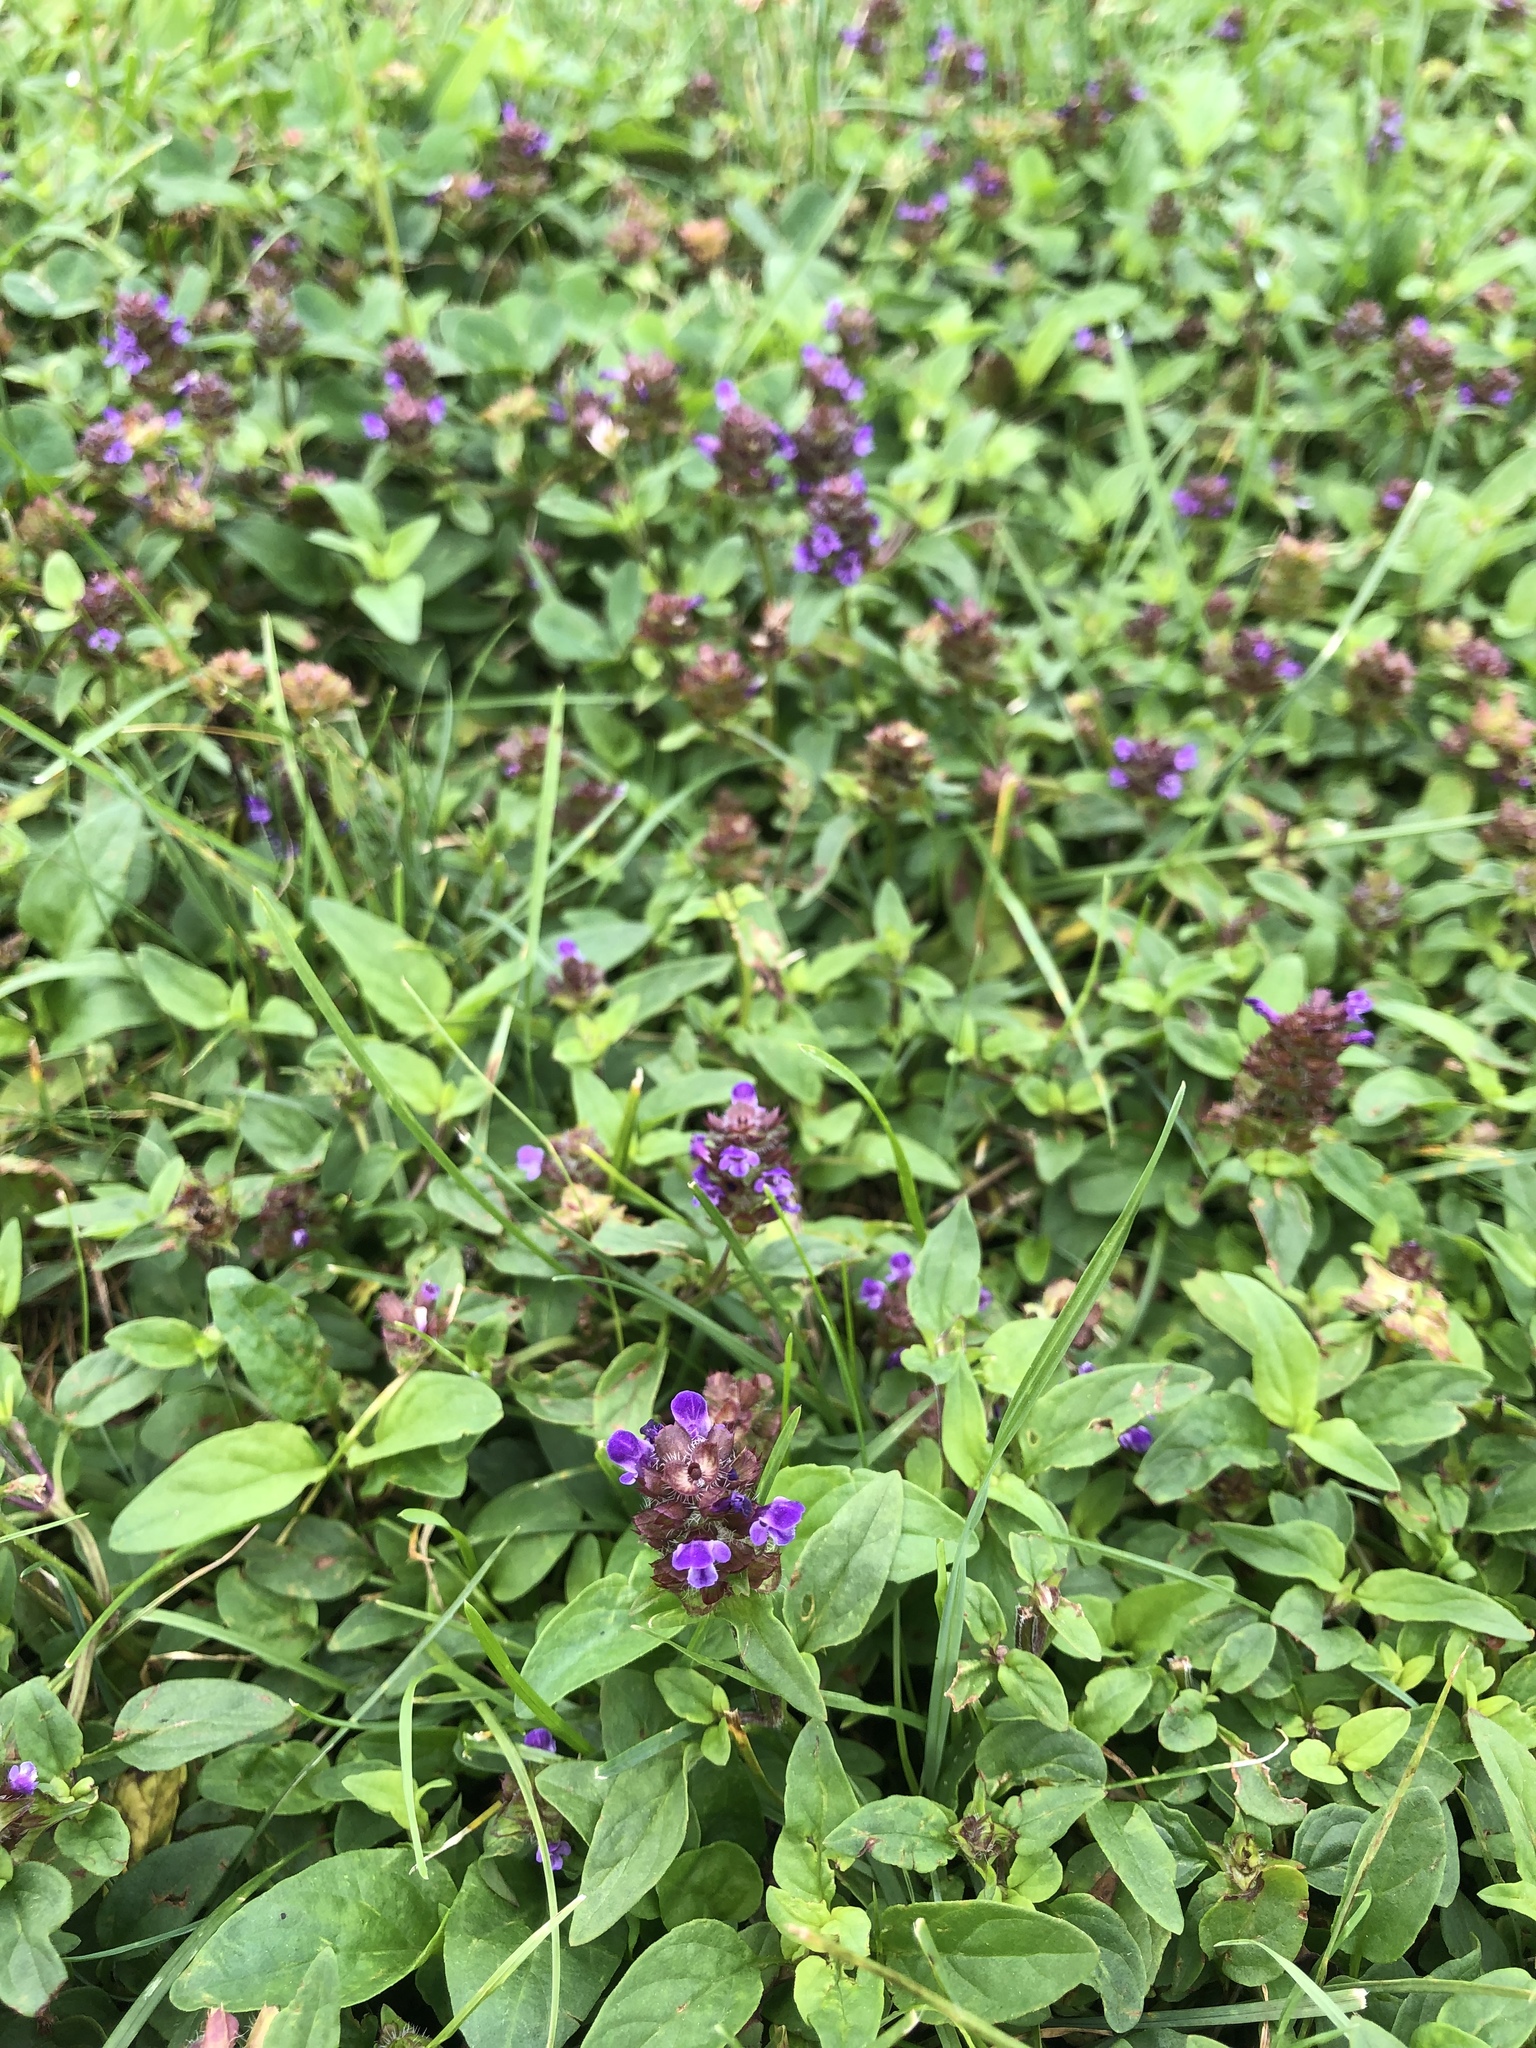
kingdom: Plantae
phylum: Tracheophyta
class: Magnoliopsida
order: Lamiales
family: Lamiaceae
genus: Prunella
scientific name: Prunella vulgaris
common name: Heal-all
